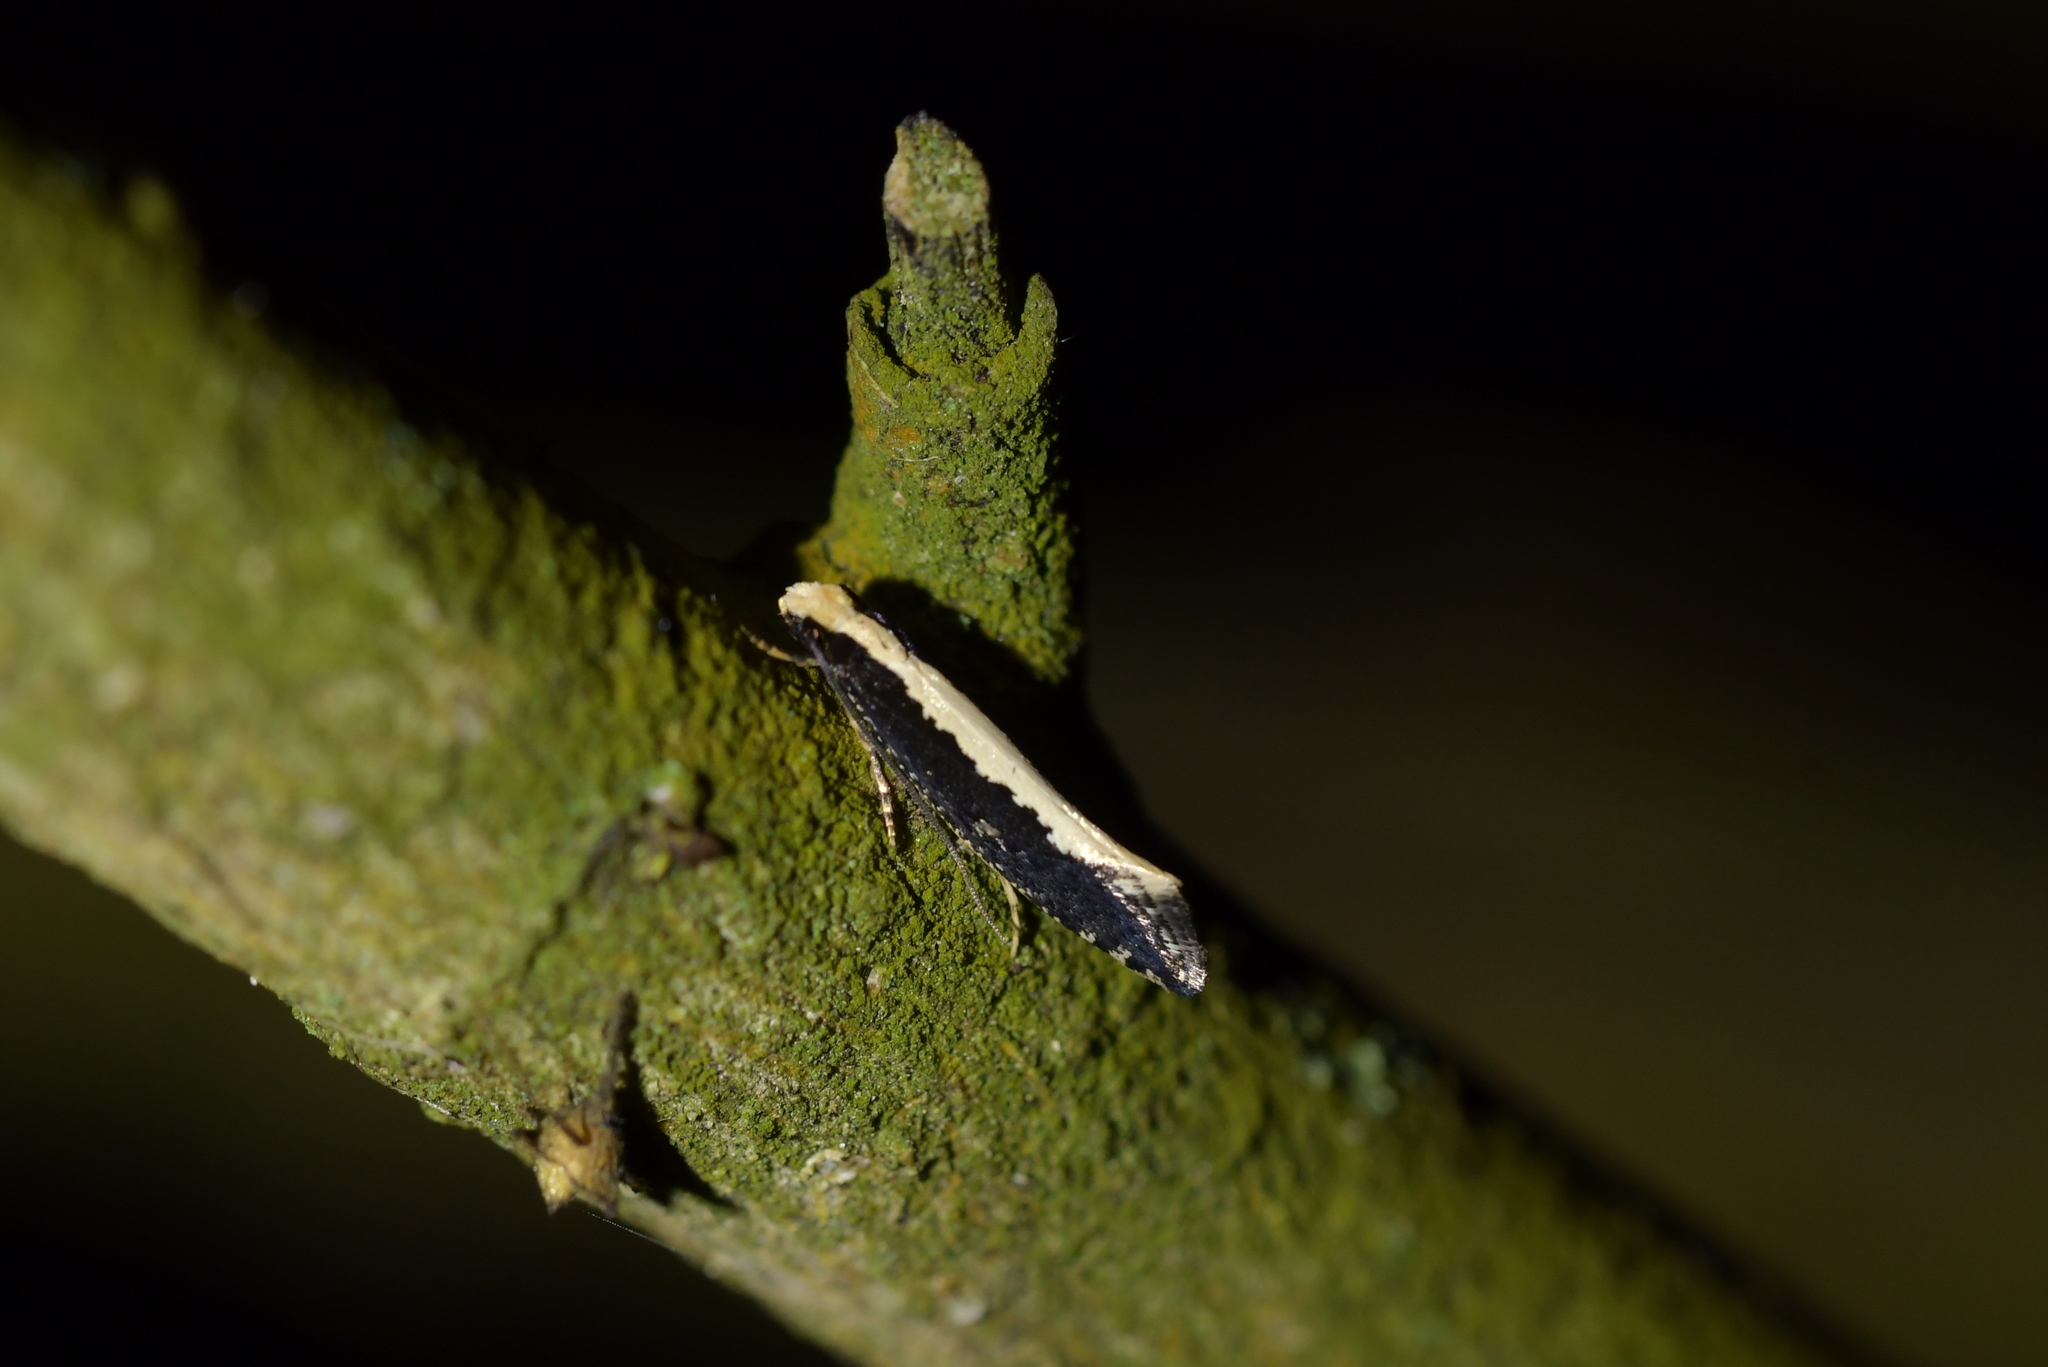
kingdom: Animalia
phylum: Arthropoda
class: Insecta
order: Lepidoptera
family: Tineidae
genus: Monopis
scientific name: Monopis ethelella
